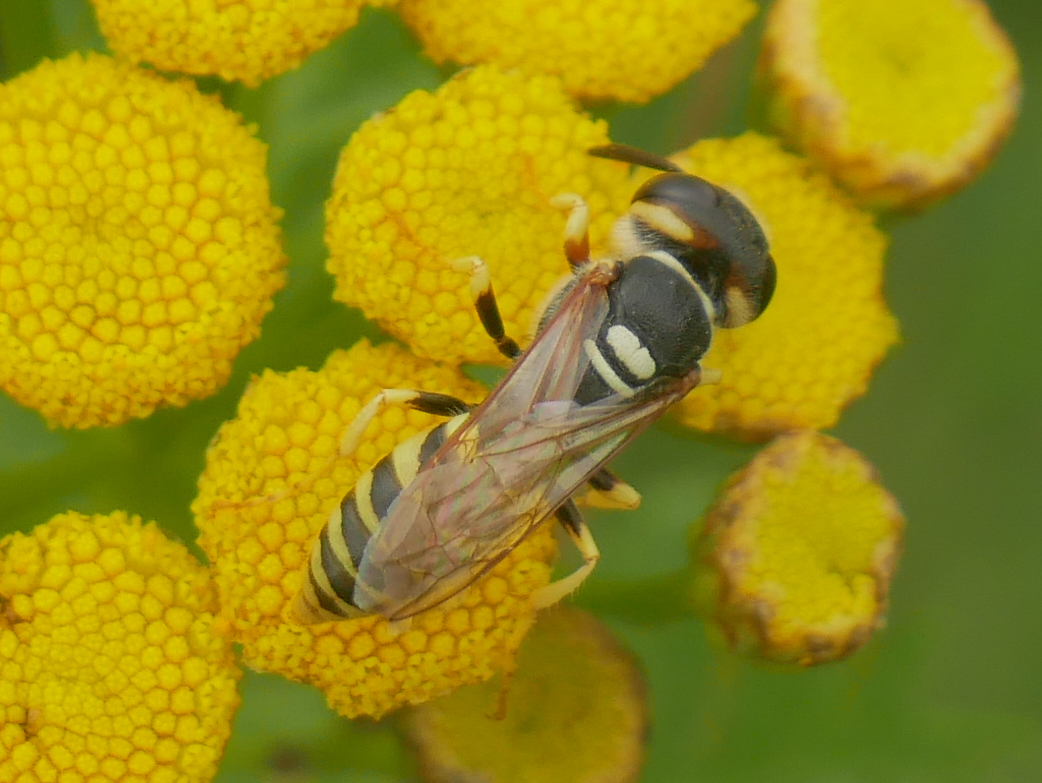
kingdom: Animalia
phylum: Arthropoda
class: Insecta
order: Hymenoptera
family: Crabronidae
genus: Philanthus
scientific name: Philanthus triangulum
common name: Bee wolf
